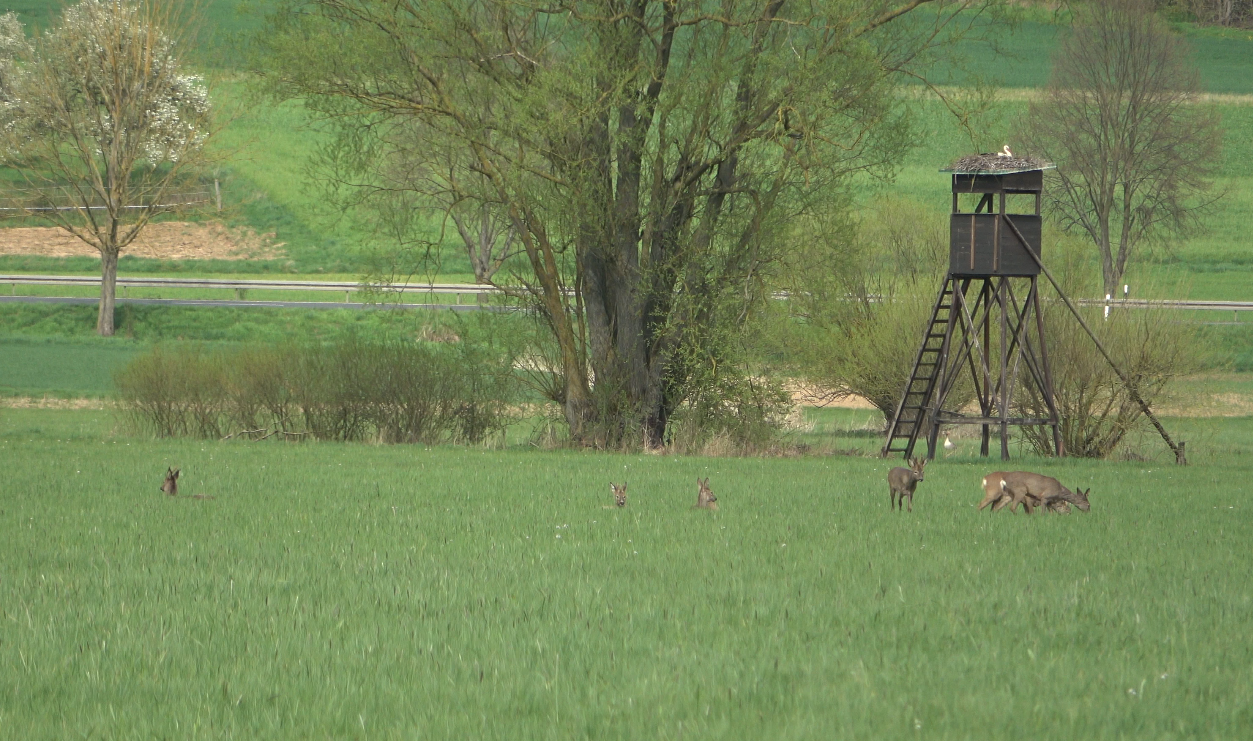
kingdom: Animalia
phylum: Chordata
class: Mammalia
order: Artiodactyla
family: Cervidae
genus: Capreolus
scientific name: Capreolus capreolus
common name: Western roe deer
